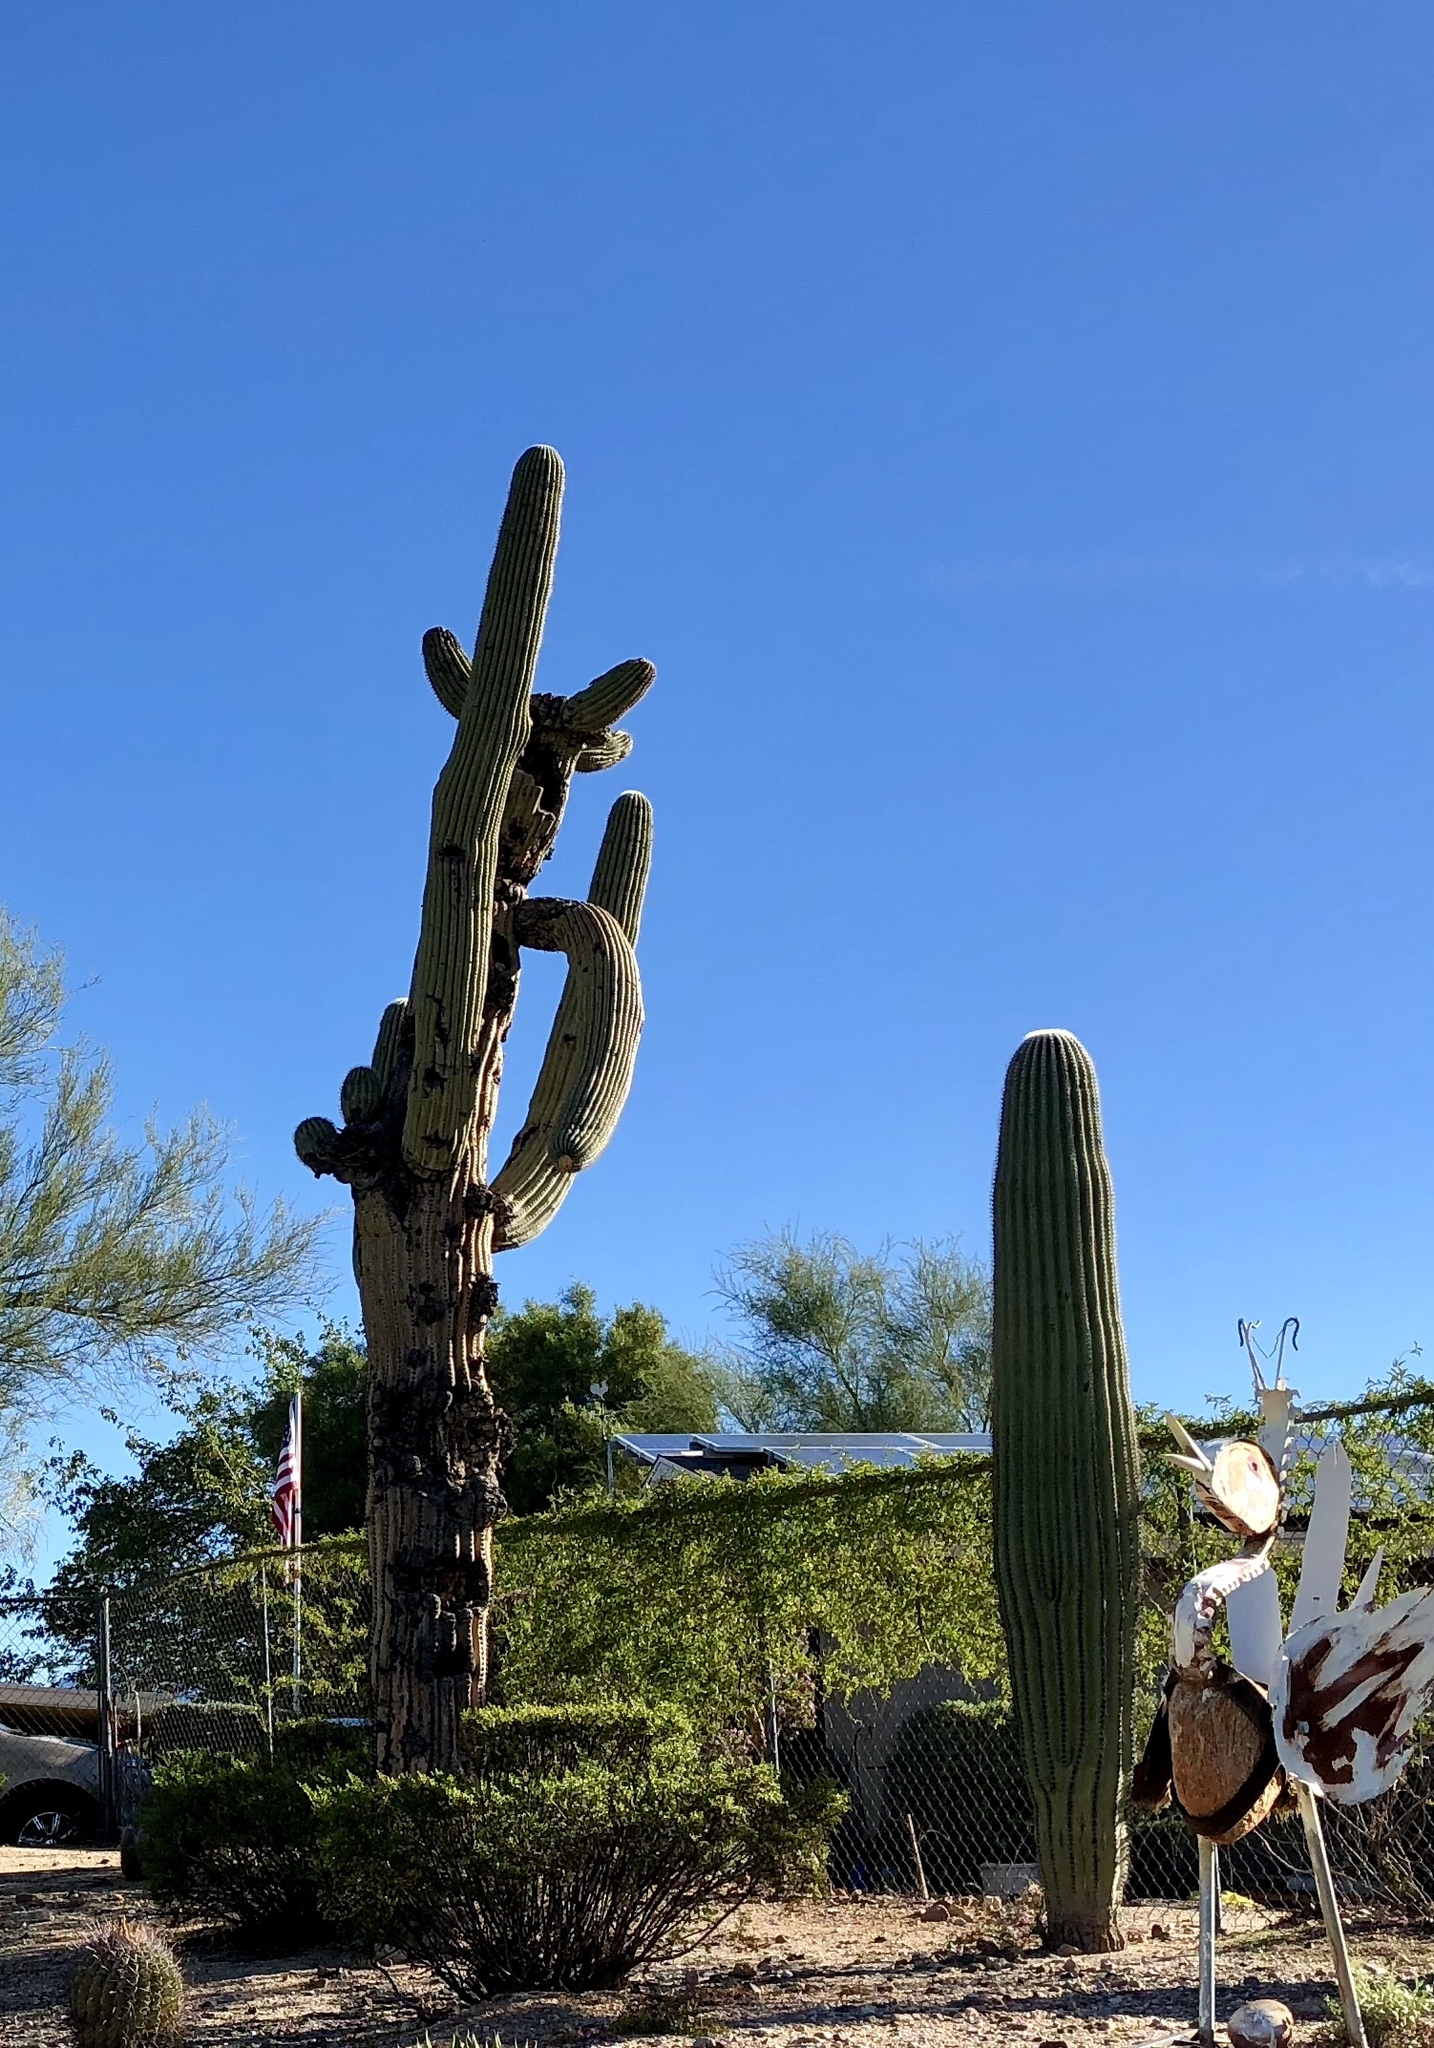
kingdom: Plantae
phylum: Tracheophyta
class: Magnoliopsida
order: Caryophyllales
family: Cactaceae
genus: Carnegiea
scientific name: Carnegiea gigantea
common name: Saguaro
